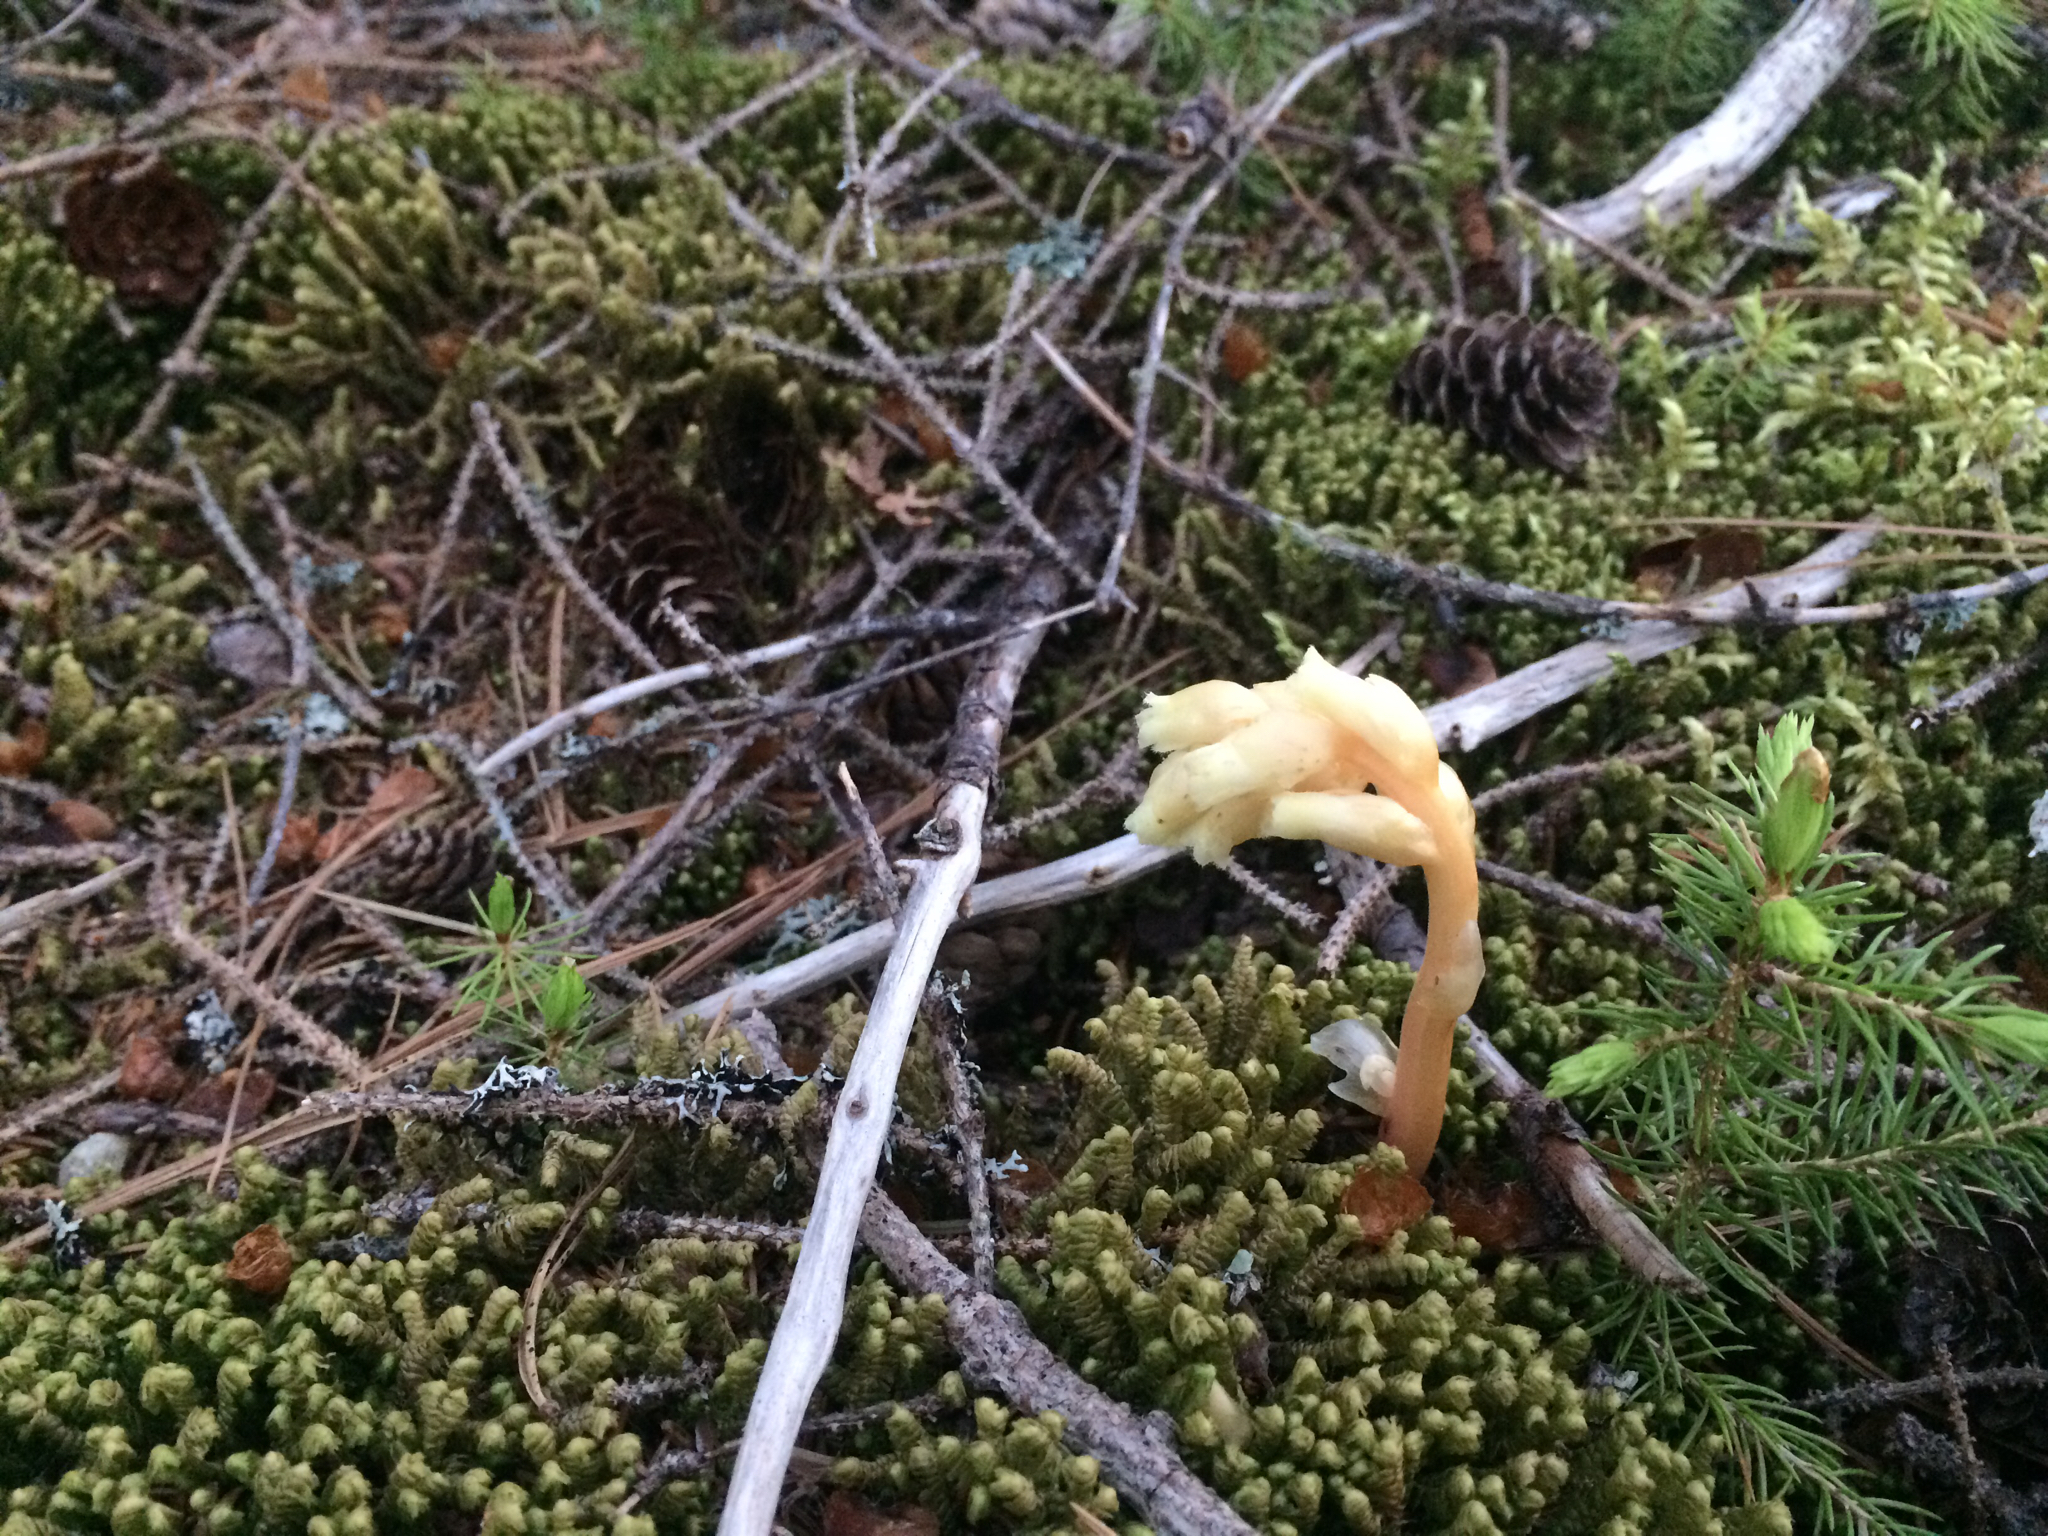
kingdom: Plantae
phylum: Tracheophyta
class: Magnoliopsida
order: Ericales
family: Ericaceae
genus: Hypopitys
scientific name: Hypopitys monotropa
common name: Yellow bird's-nest
